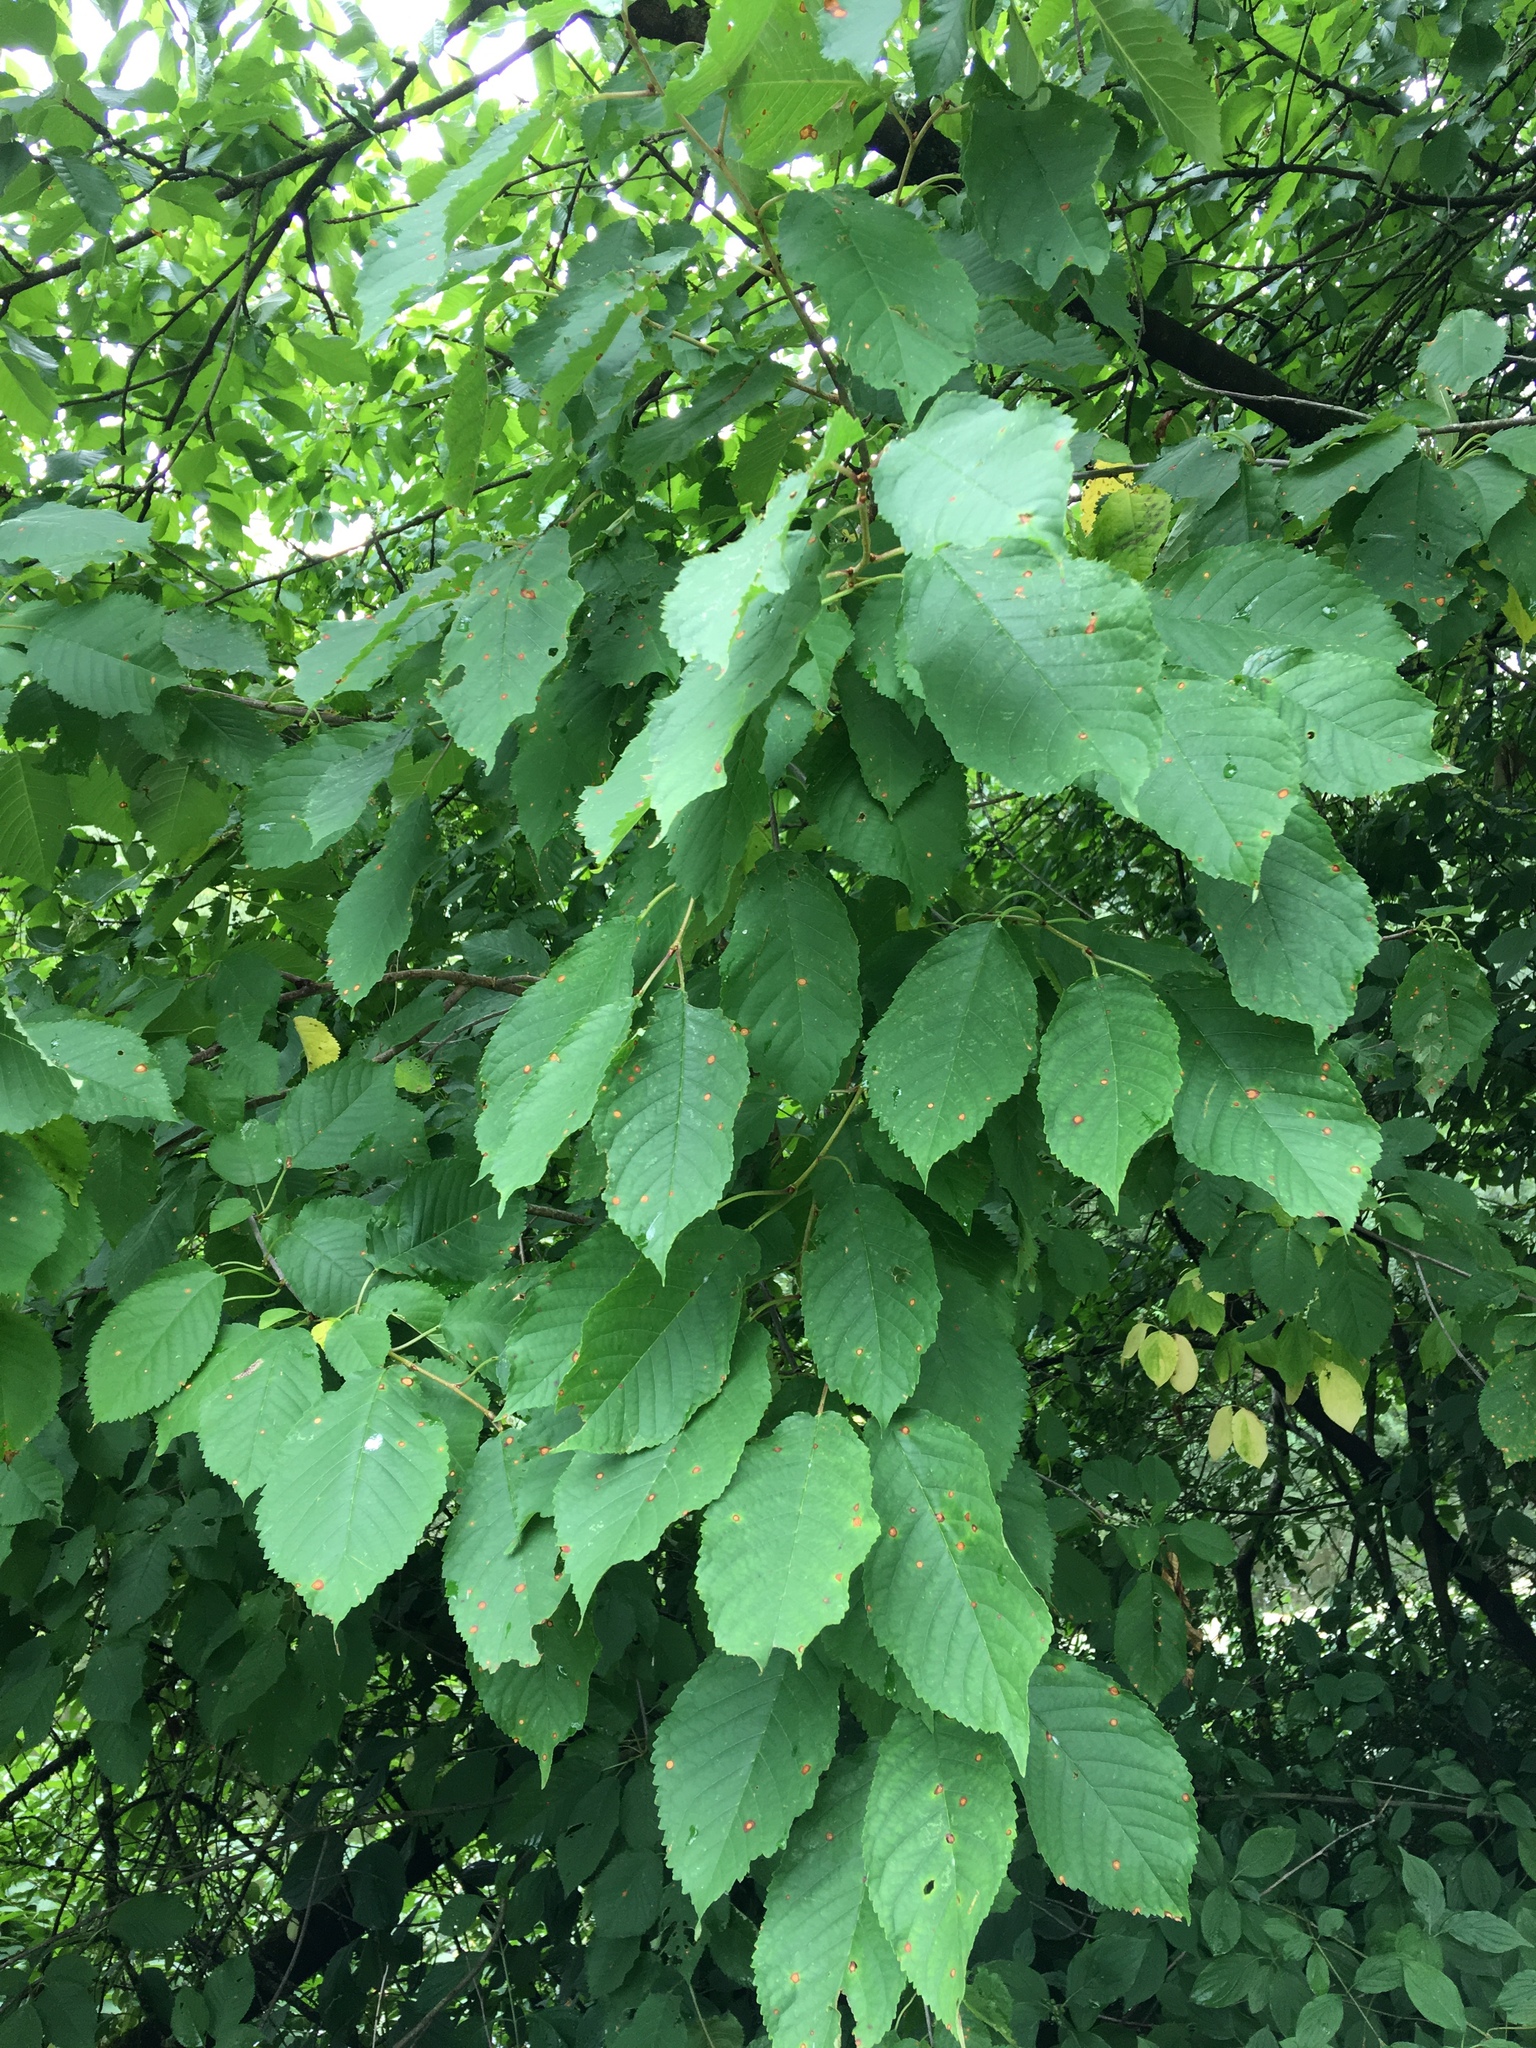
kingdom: Plantae
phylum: Tracheophyta
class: Magnoliopsida
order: Rosales
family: Rosaceae
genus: Prunus
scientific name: Prunus avium
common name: Sweet cherry
